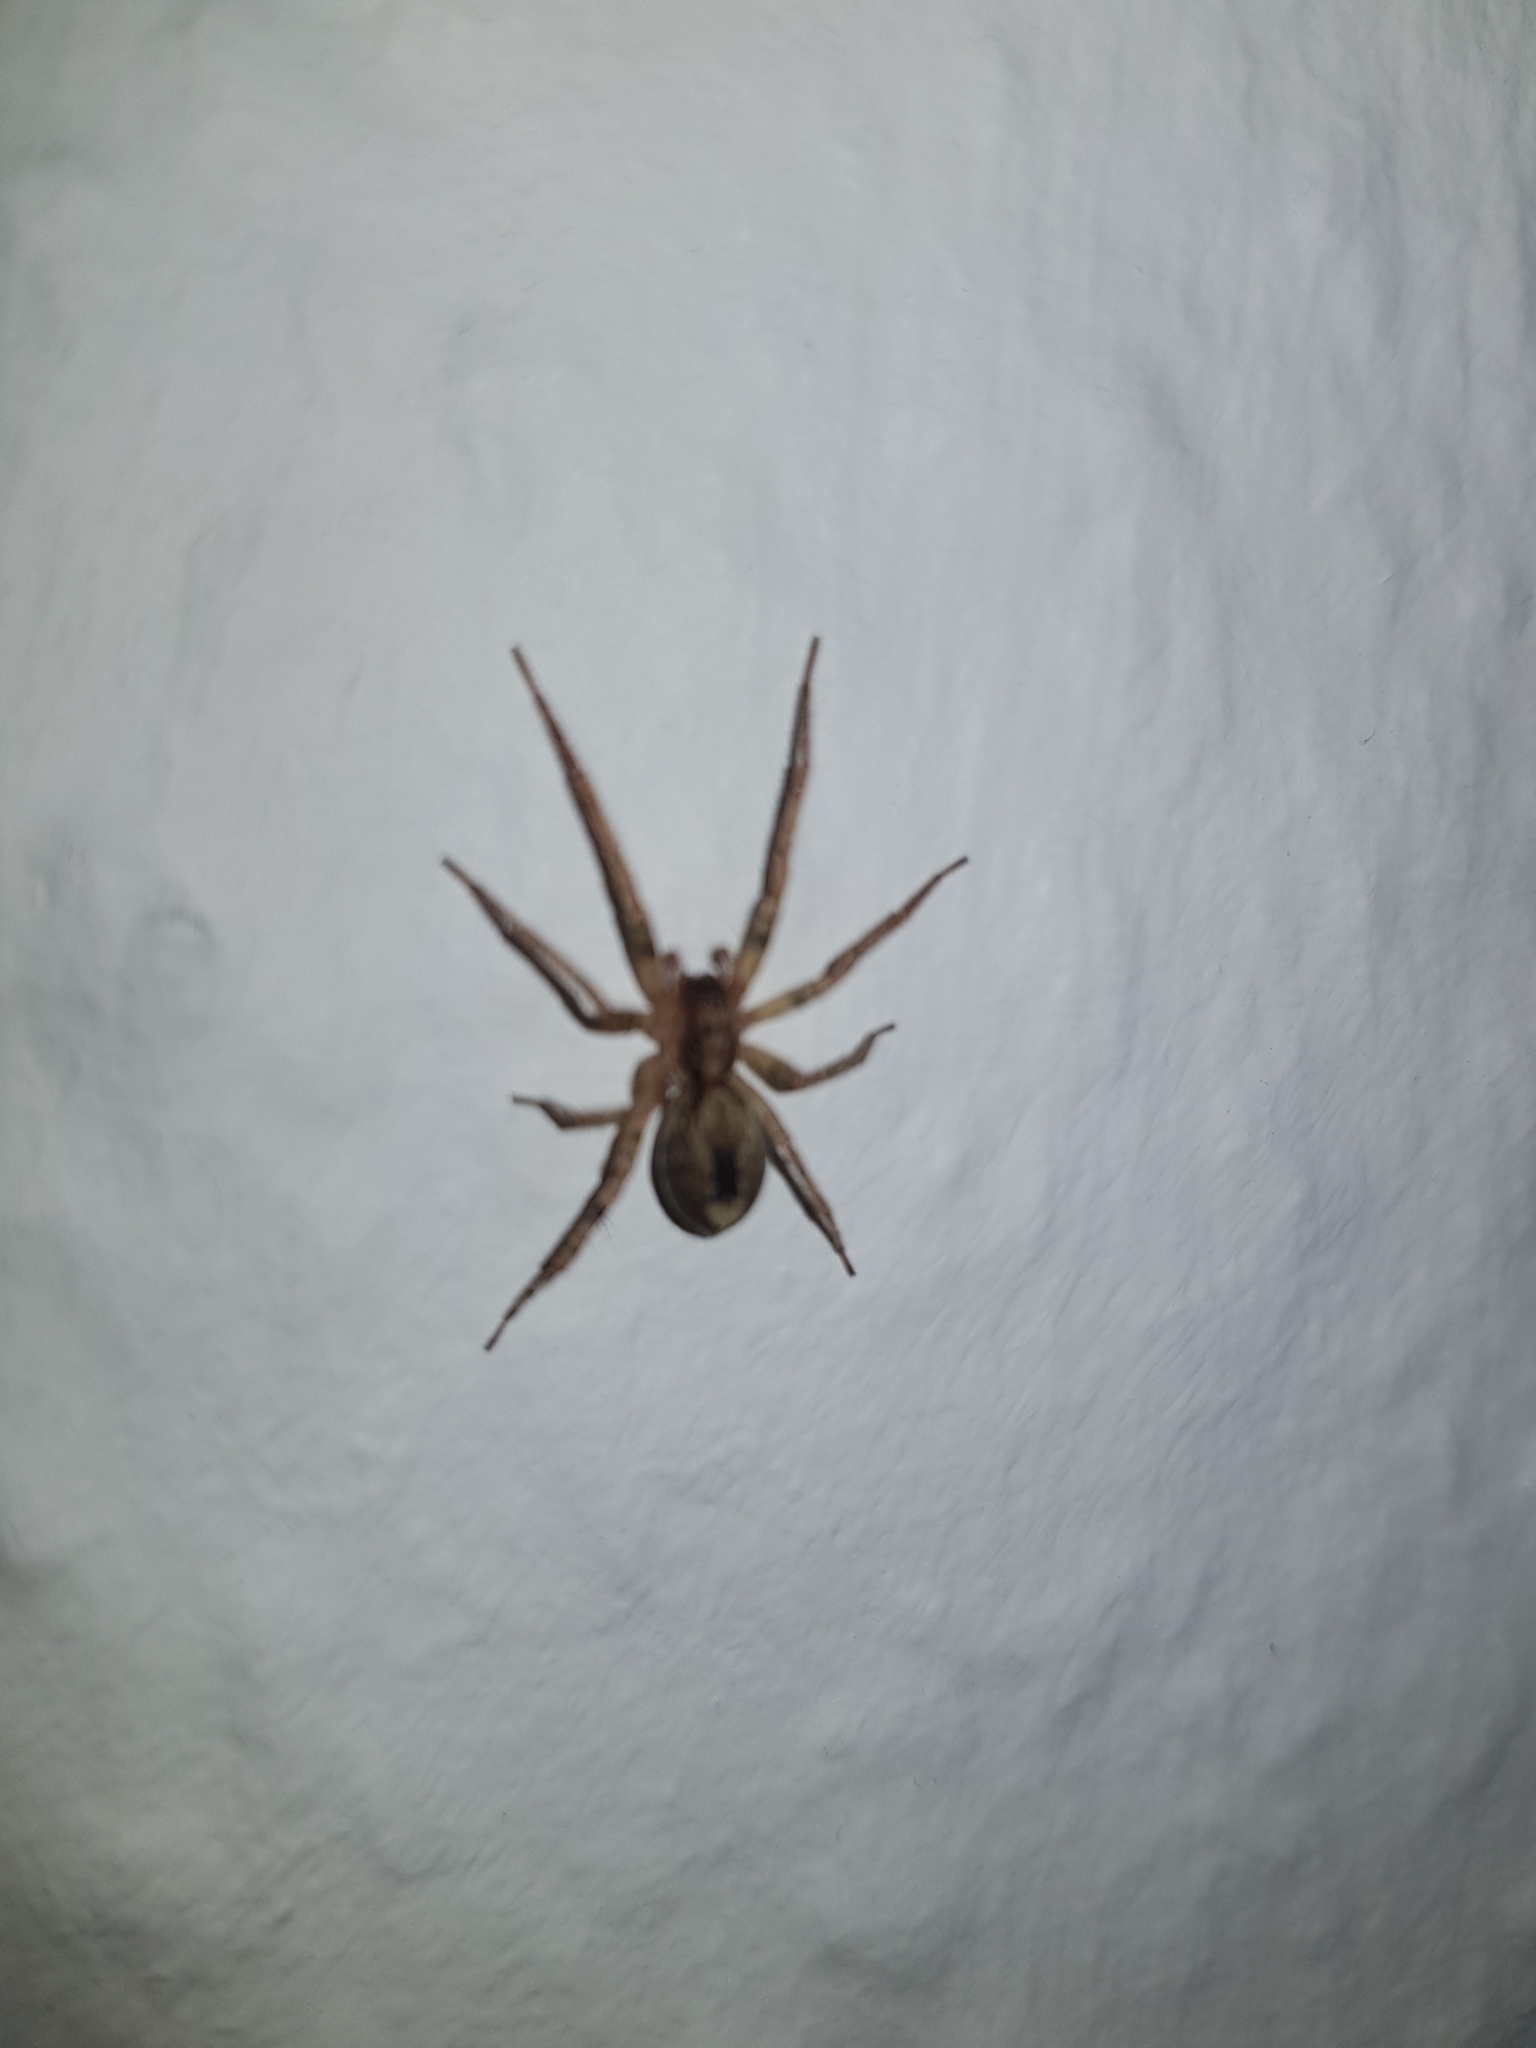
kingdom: Animalia
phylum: Arthropoda
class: Arachnida
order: Araneae
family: Anyphaenidae
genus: Anyphaena
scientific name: Anyphaena accentuata
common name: Buzzing spider
